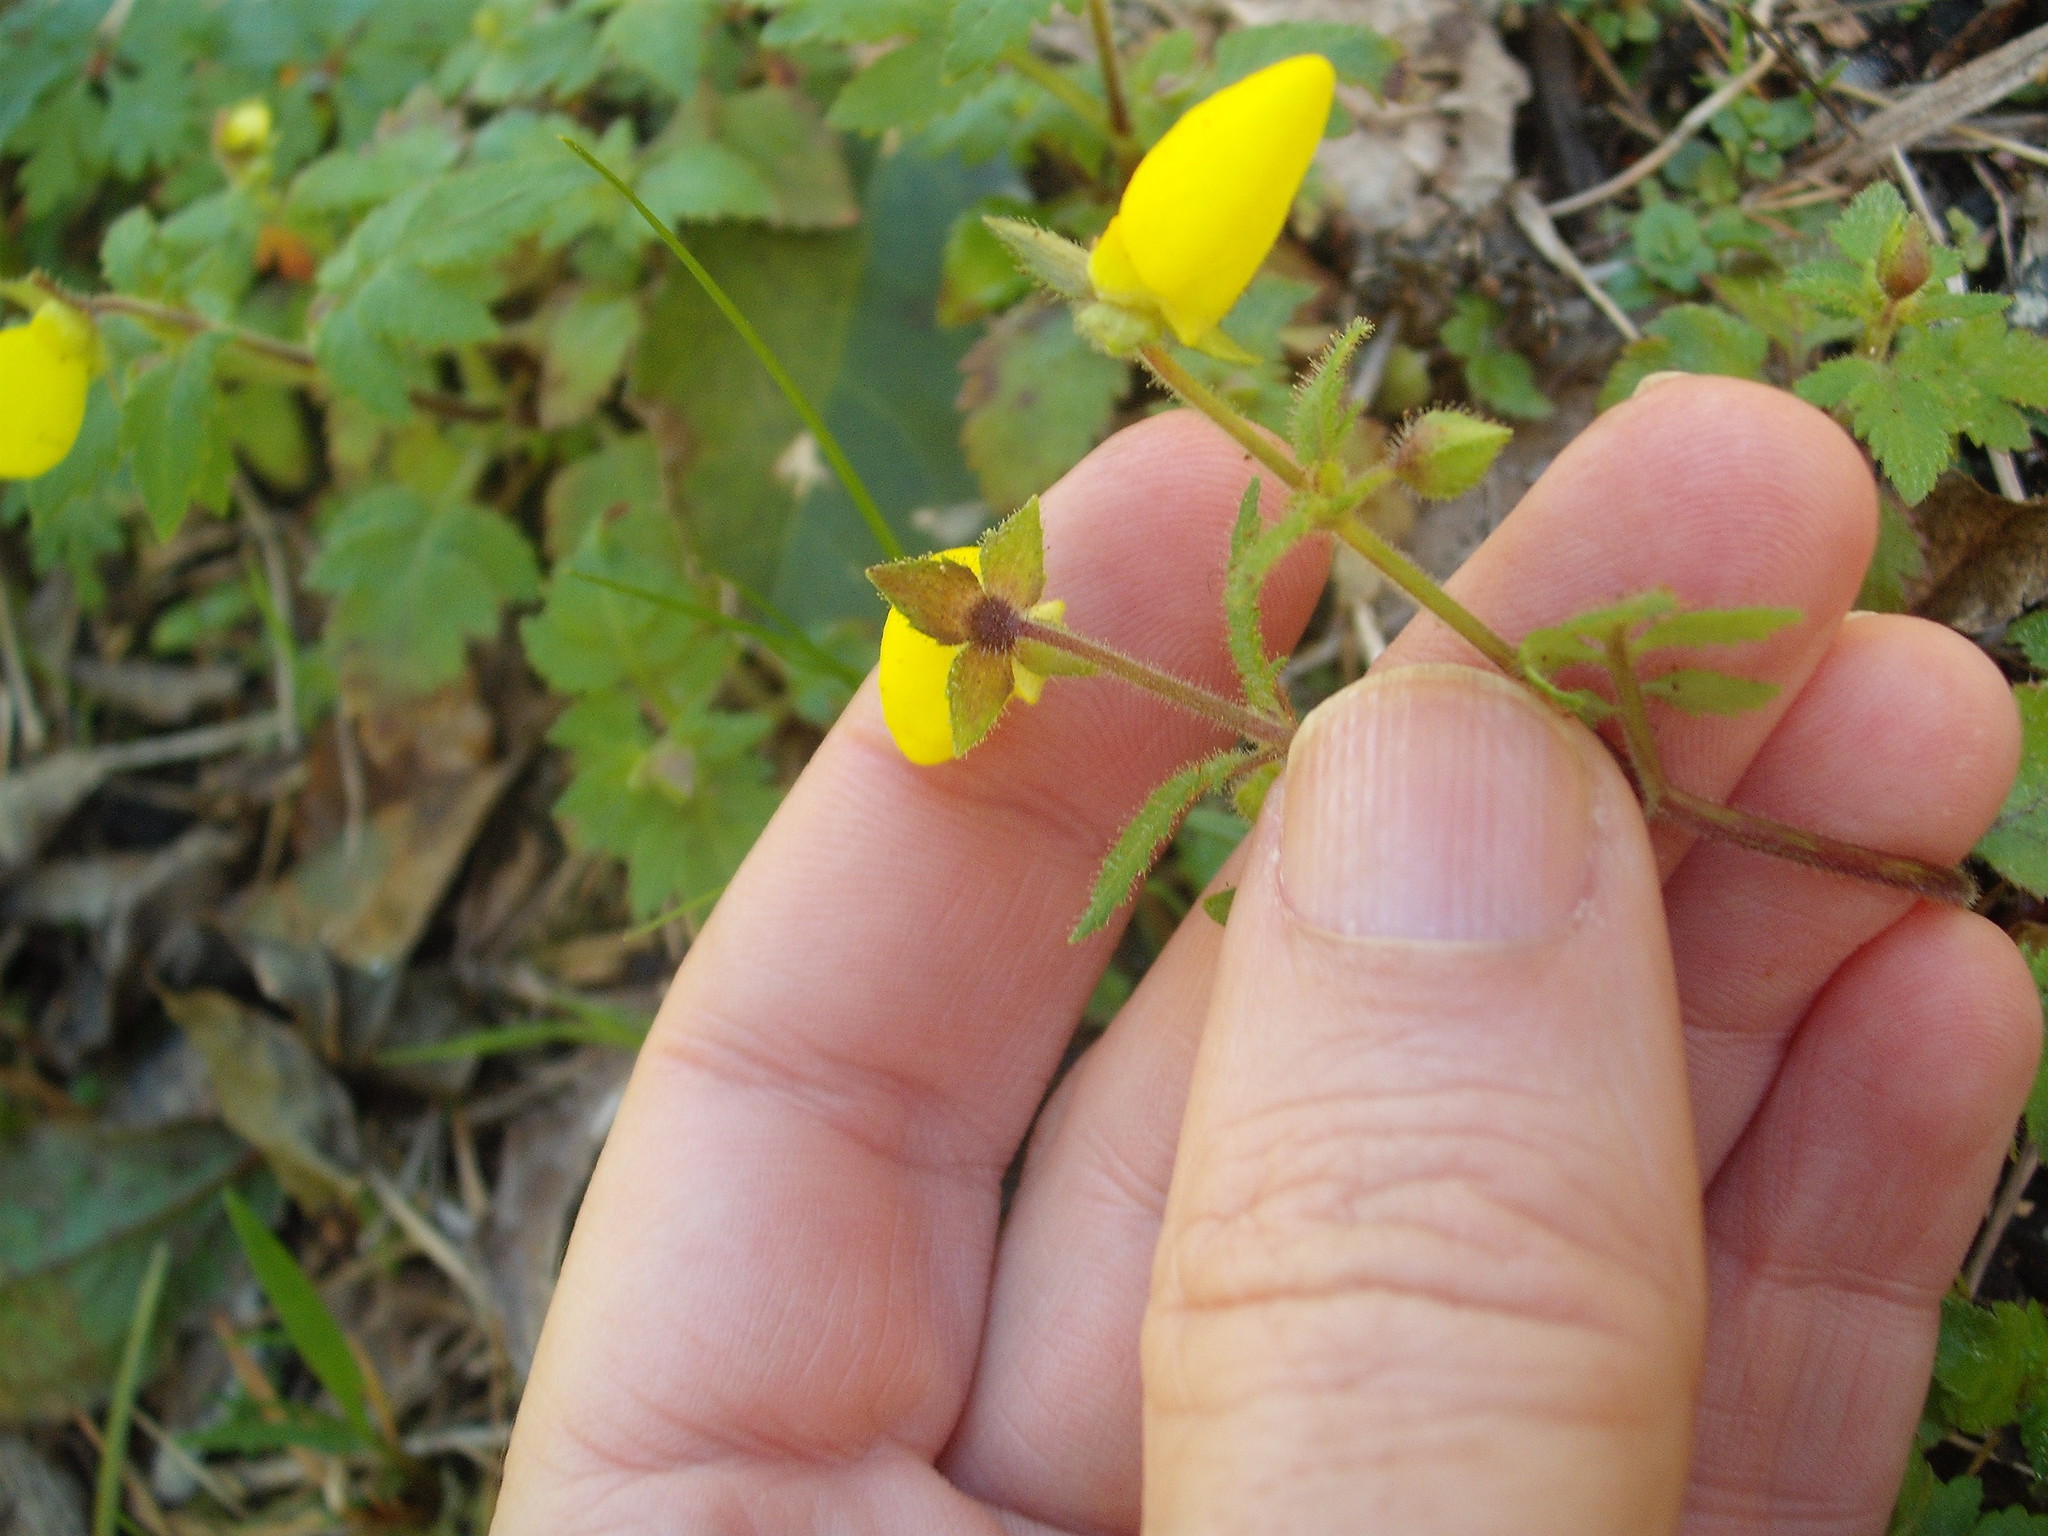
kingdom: Plantae
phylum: Tracheophyta
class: Magnoliopsida
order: Lamiales
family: Calceolariaceae
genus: Calceolaria
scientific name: Calceolaria tripartita
